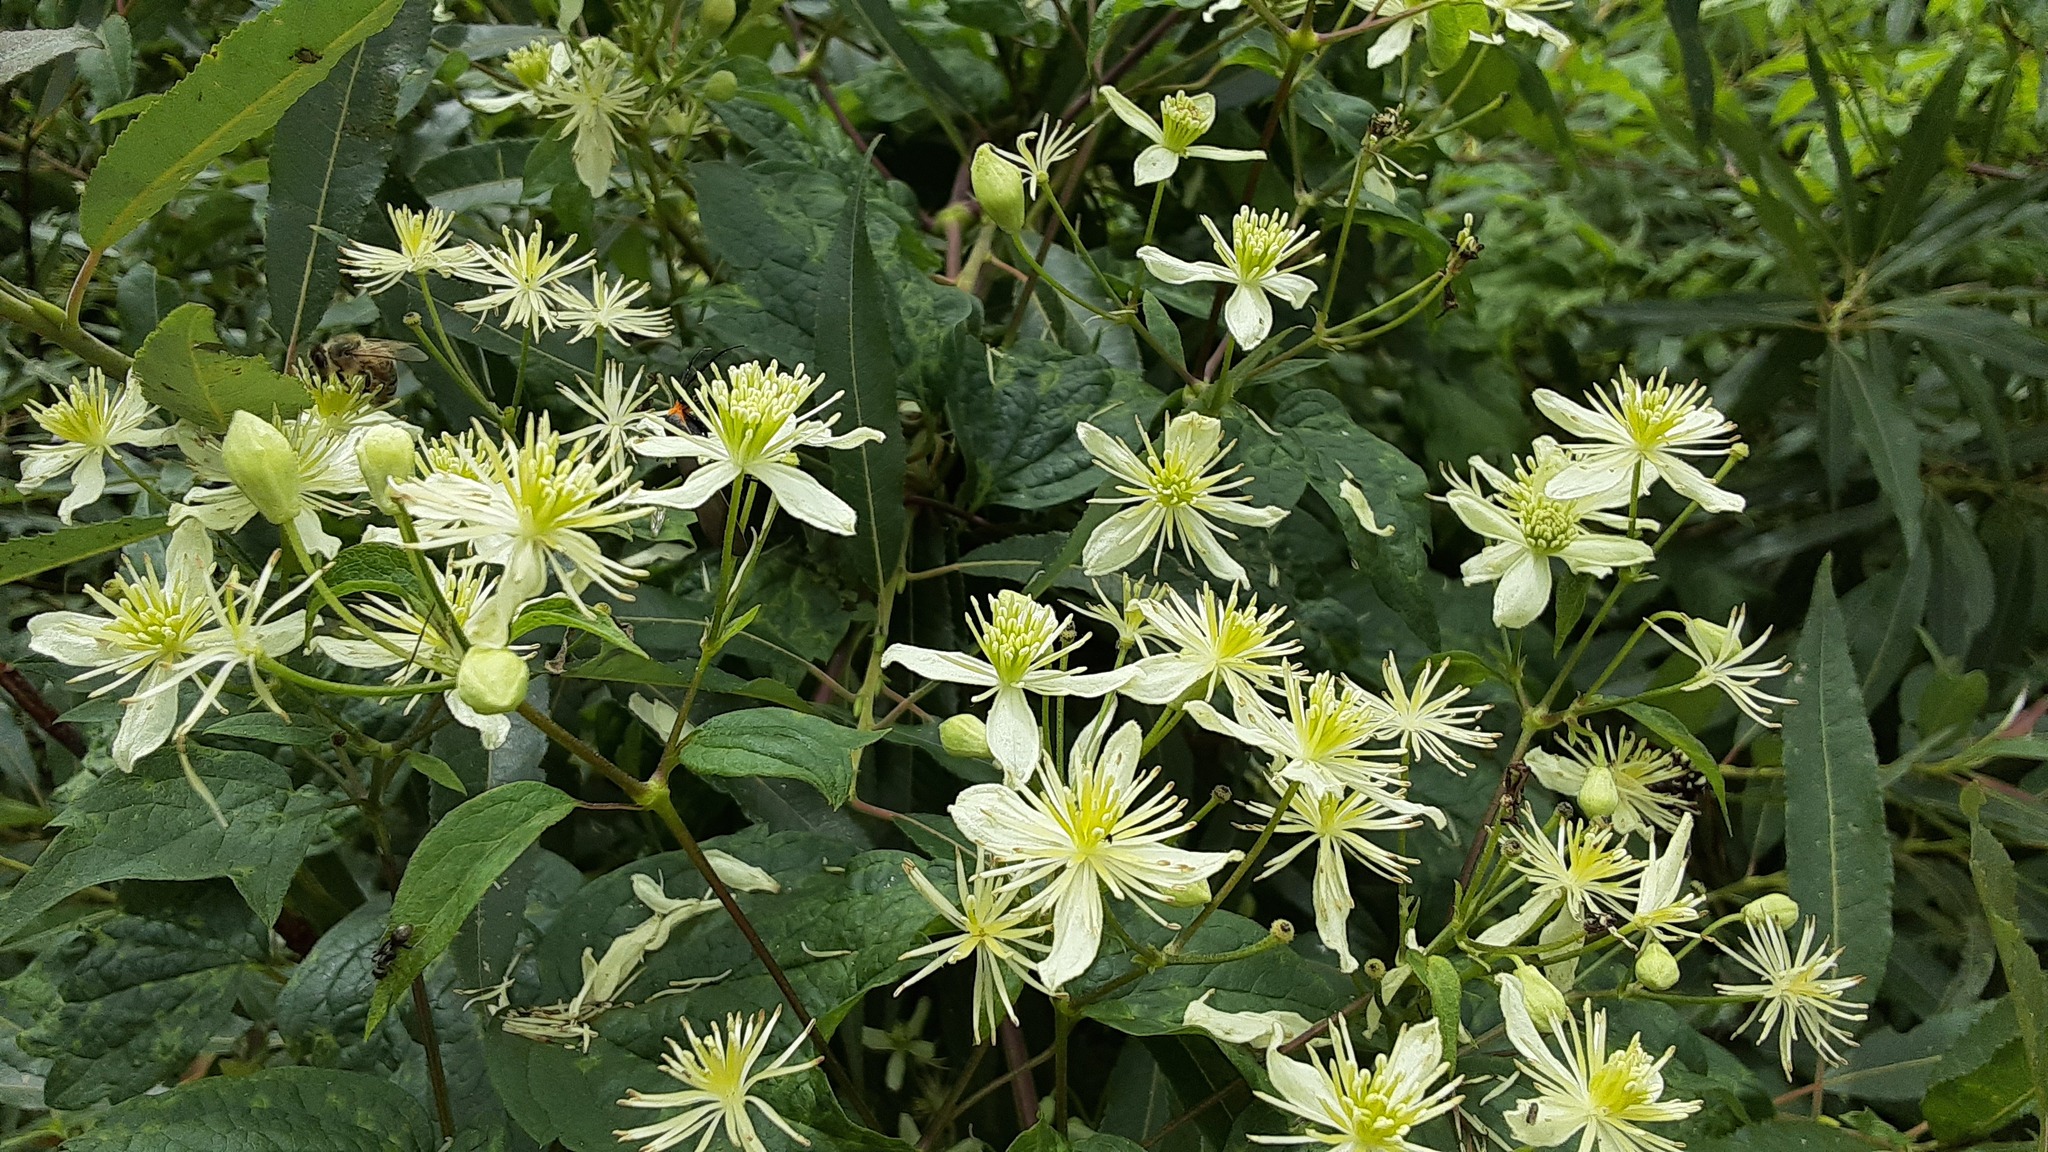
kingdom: Plantae
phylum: Tracheophyta
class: Magnoliopsida
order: Ranunculales
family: Ranunculaceae
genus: Clematis
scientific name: Clematis virginiana
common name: Virgin's-bower
